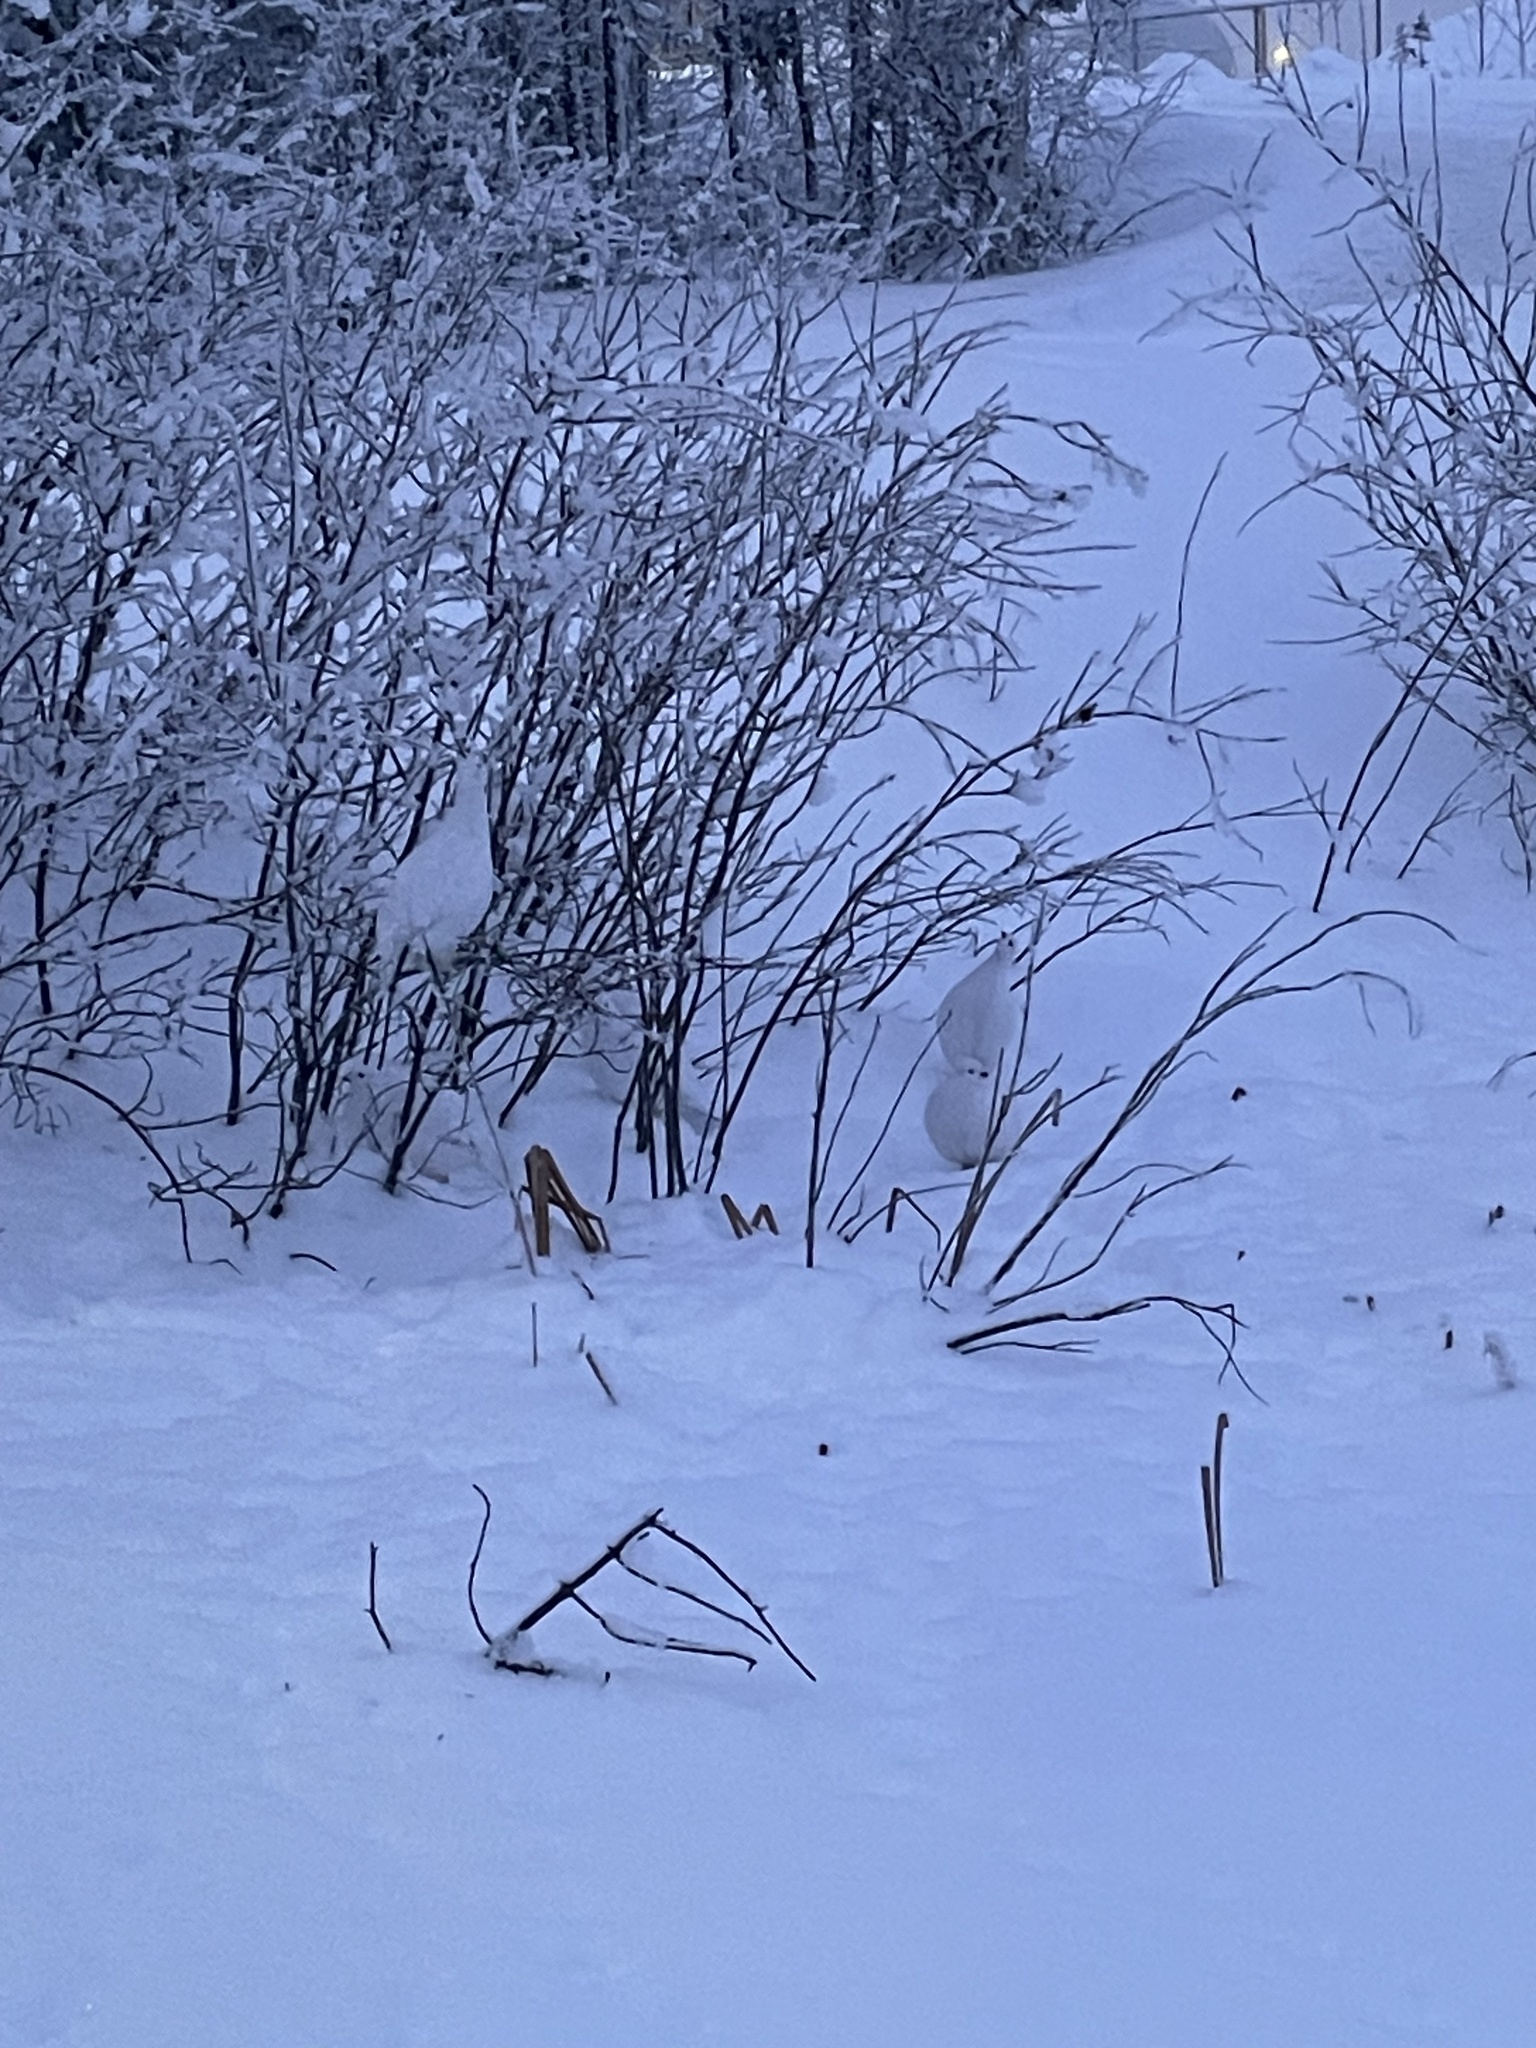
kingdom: Animalia
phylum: Chordata
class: Aves
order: Galliformes
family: Phasianidae
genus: Lagopus
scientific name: Lagopus lagopus
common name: Willow ptarmigan
